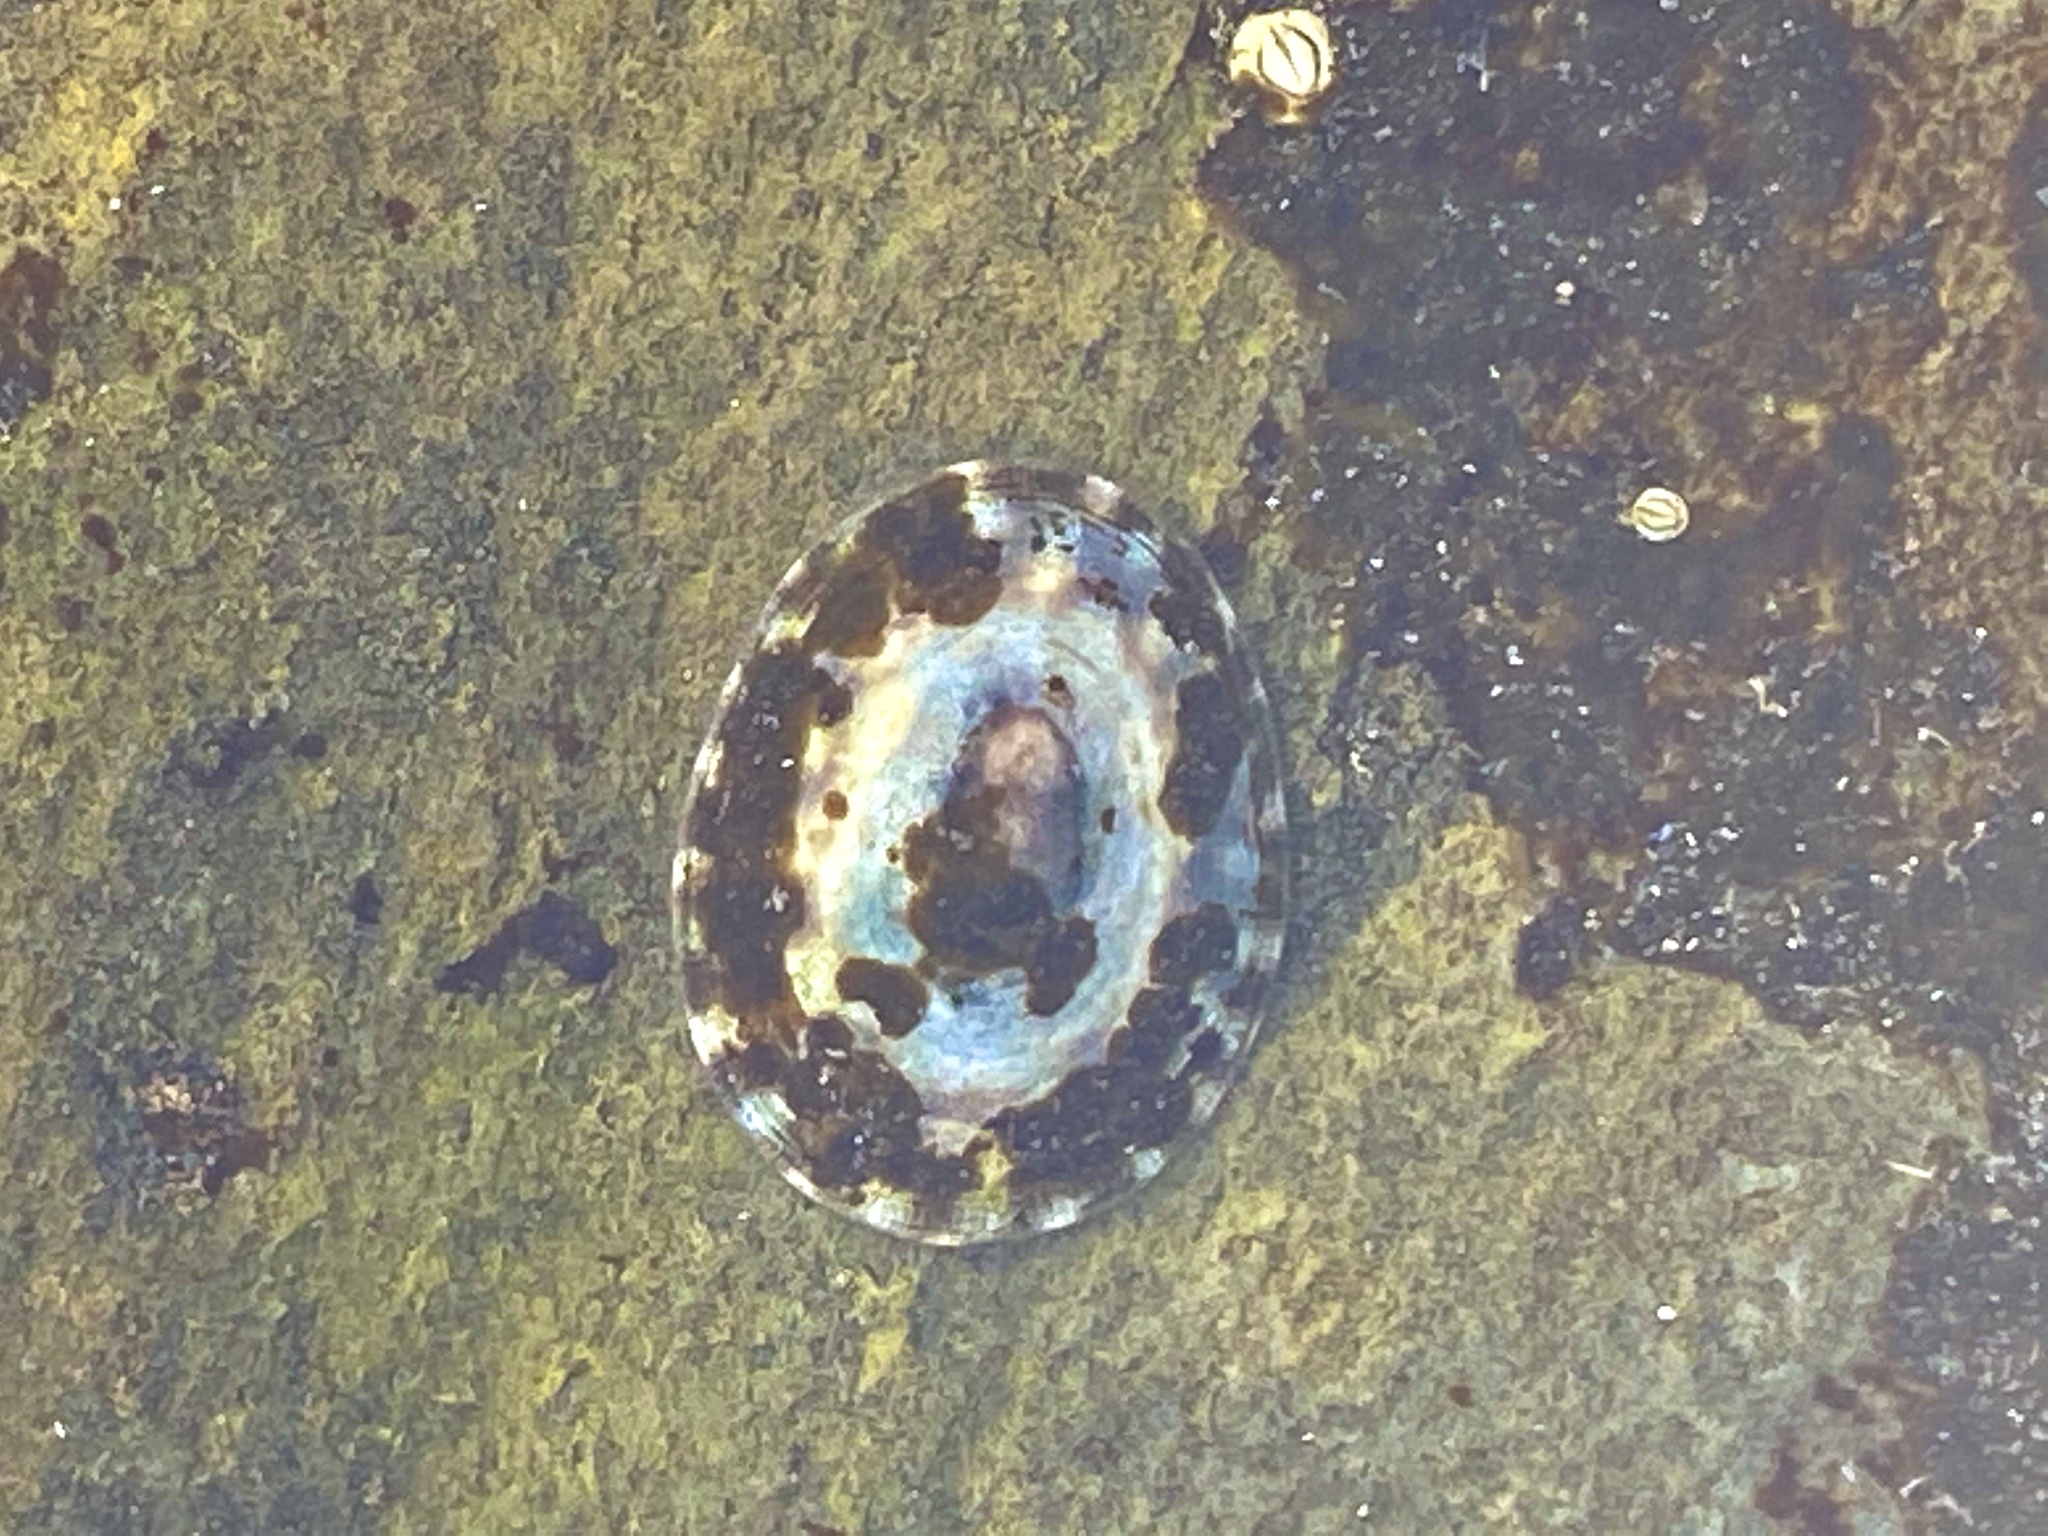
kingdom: Animalia
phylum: Mollusca
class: Gastropoda
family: Lottiidae
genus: Testudinalia
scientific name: Testudinalia testudinalis
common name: Common tortoiseshell limpet
